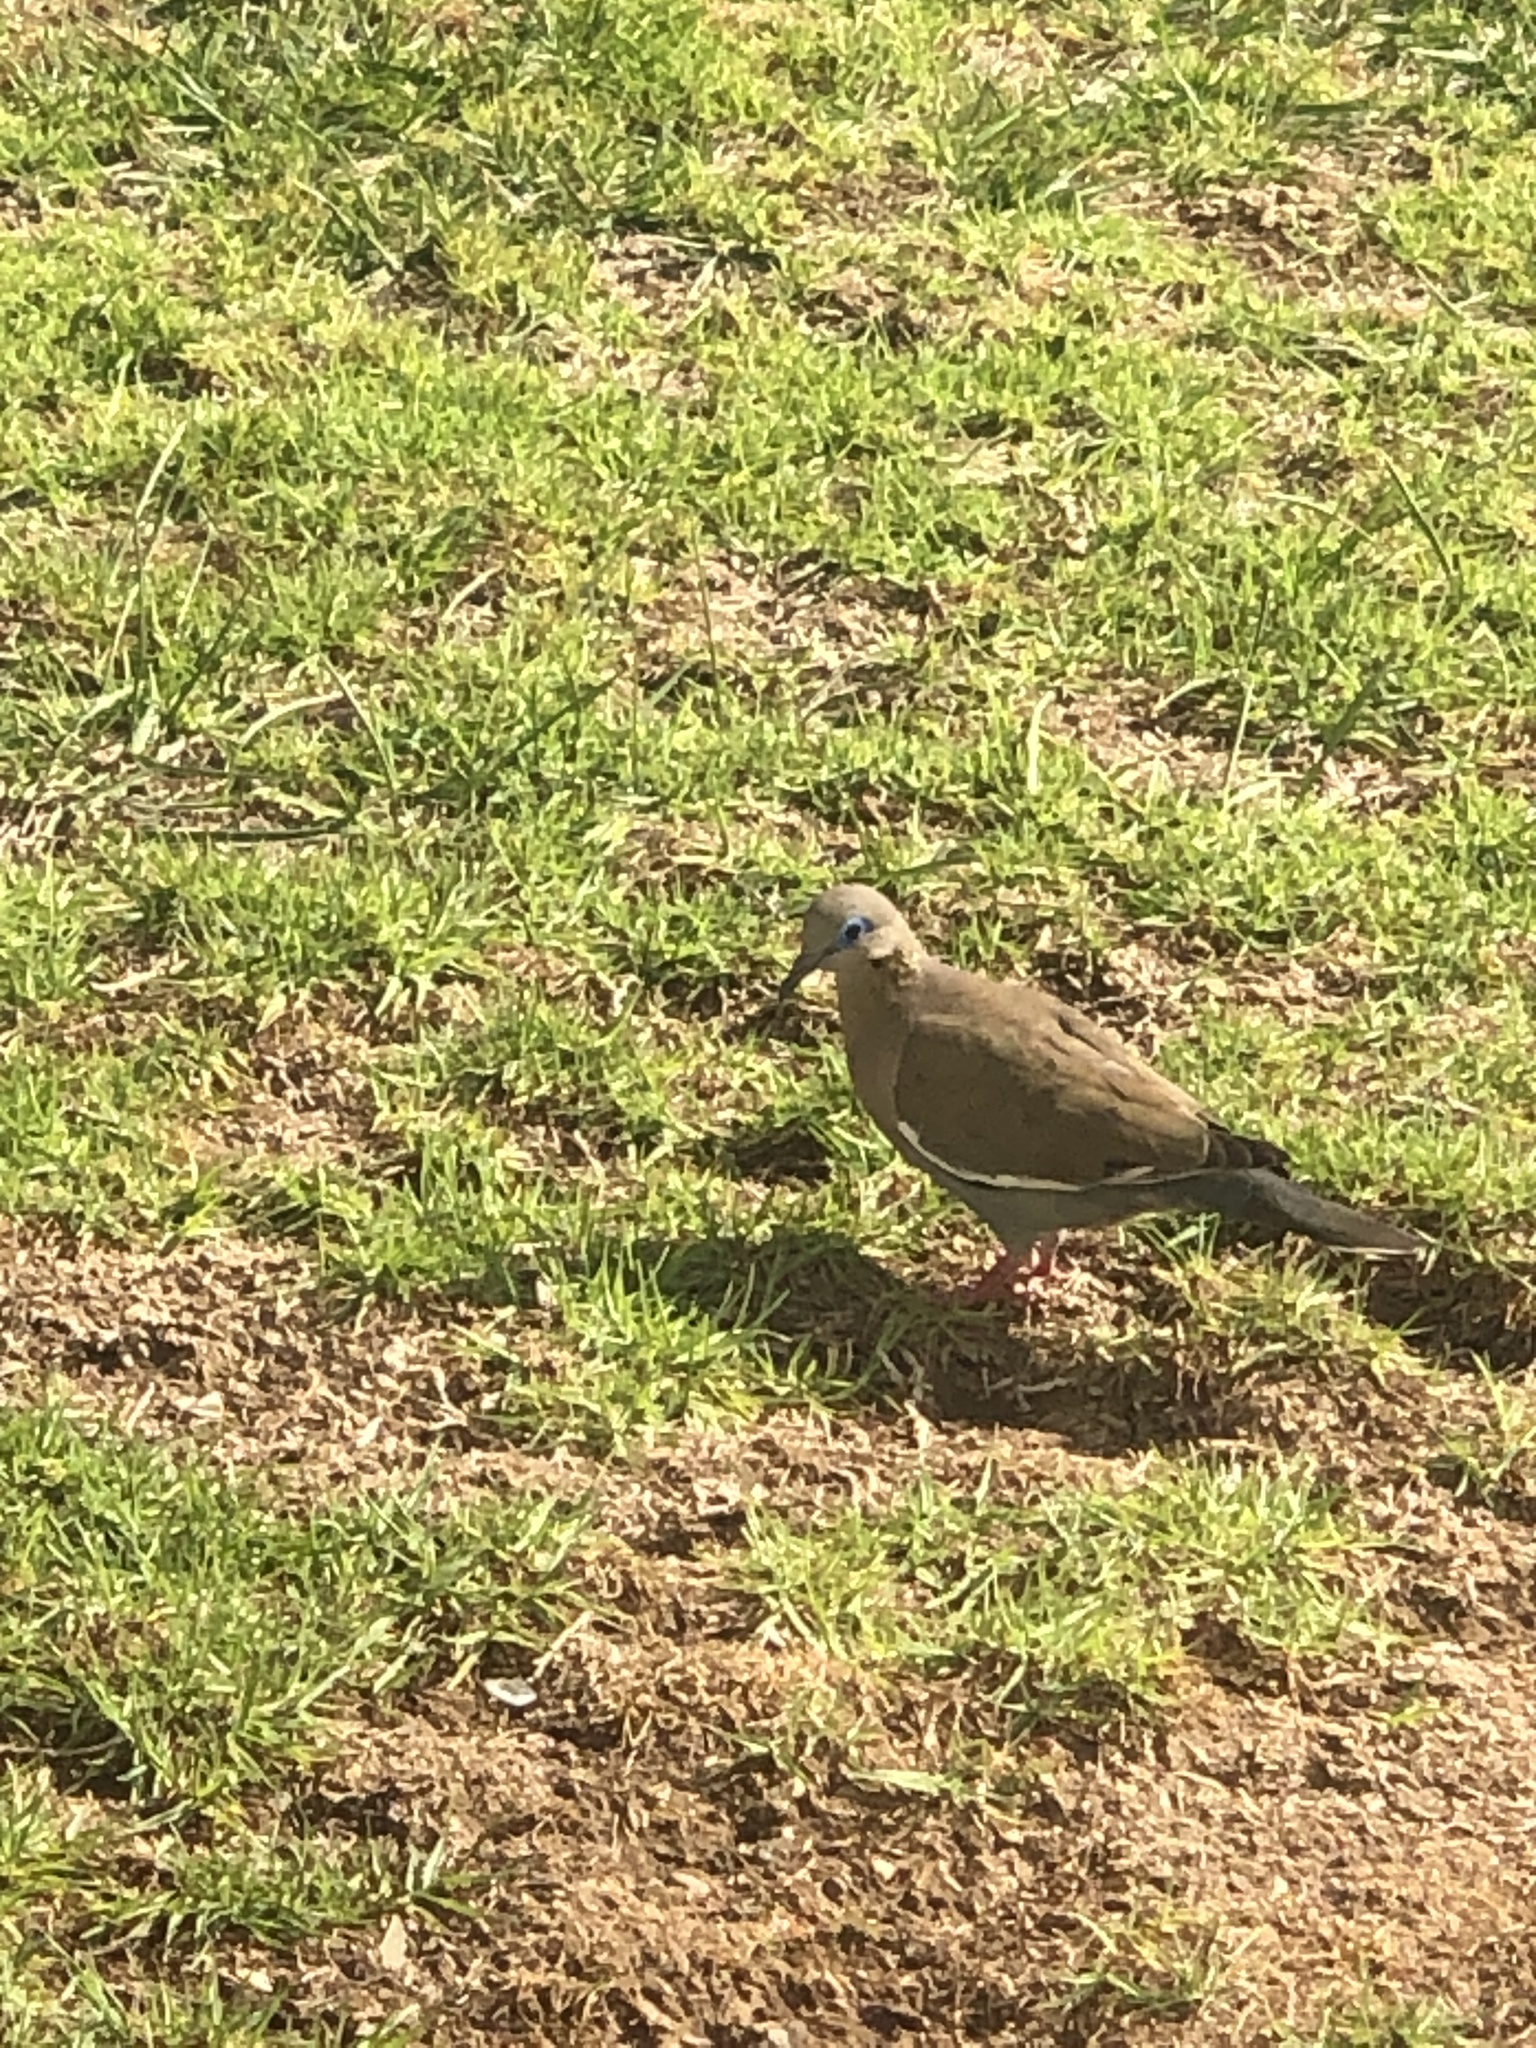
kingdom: Animalia
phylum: Chordata
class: Aves
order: Columbiformes
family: Columbidae
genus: Zenaida
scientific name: Zenaida meloda
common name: West peruvian dove
